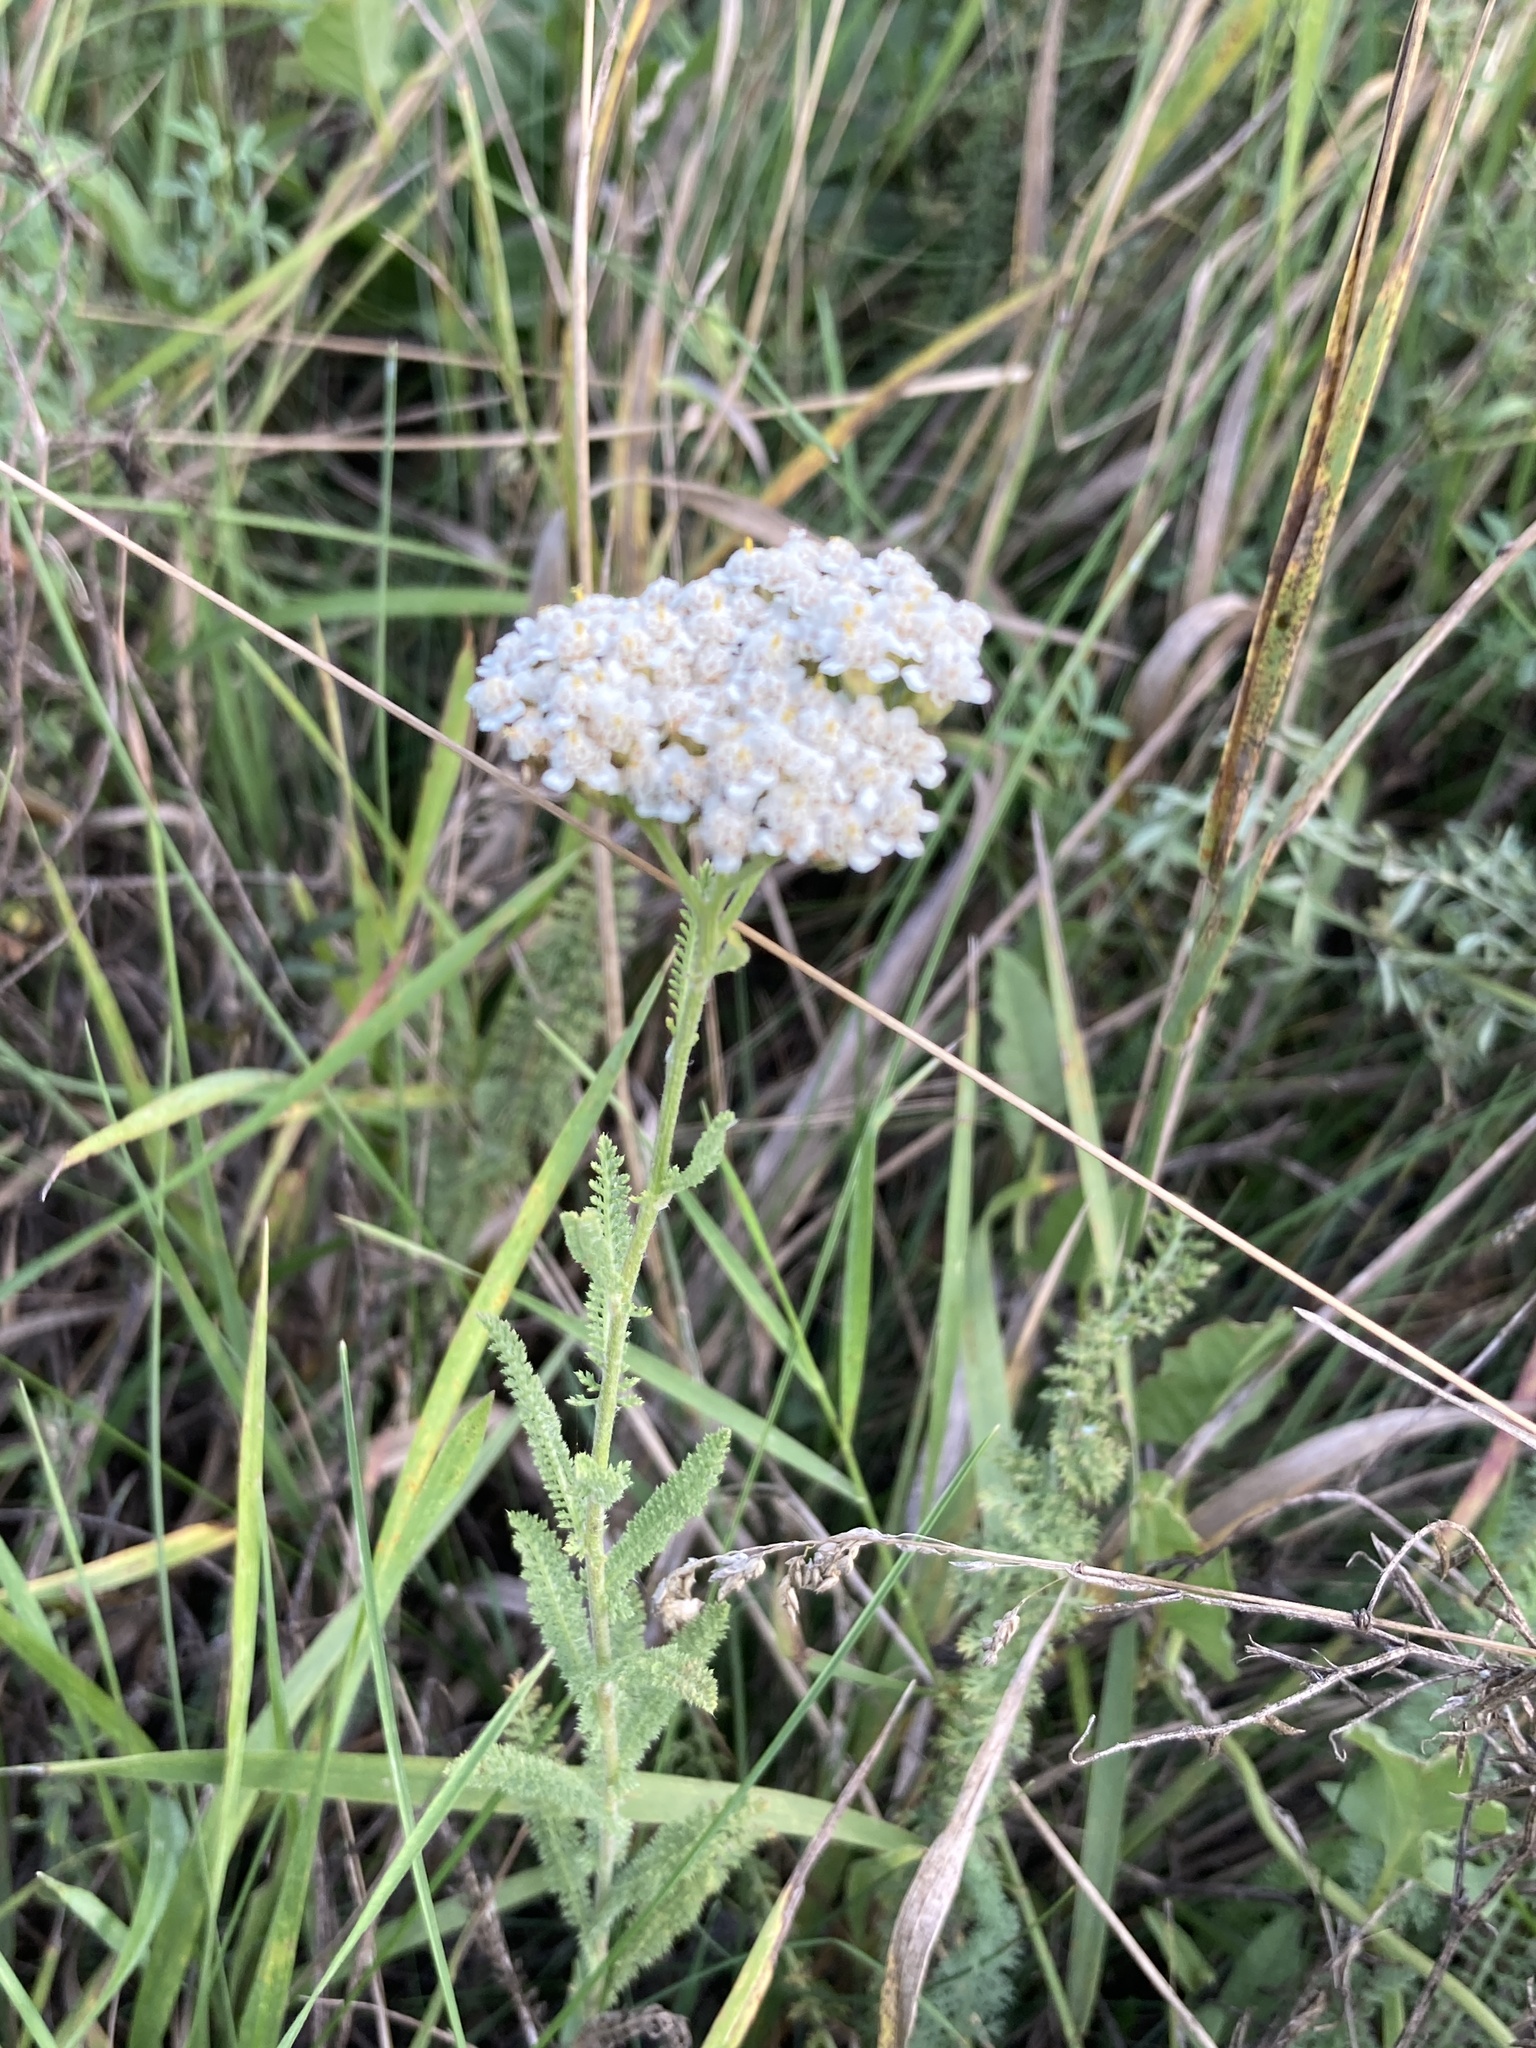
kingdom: Plantae
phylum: Tracheophyta
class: Magnoliopsida
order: Asterales
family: Asteraceae
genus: Achillea
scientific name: Achillea setacea
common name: Bristly yarrow
